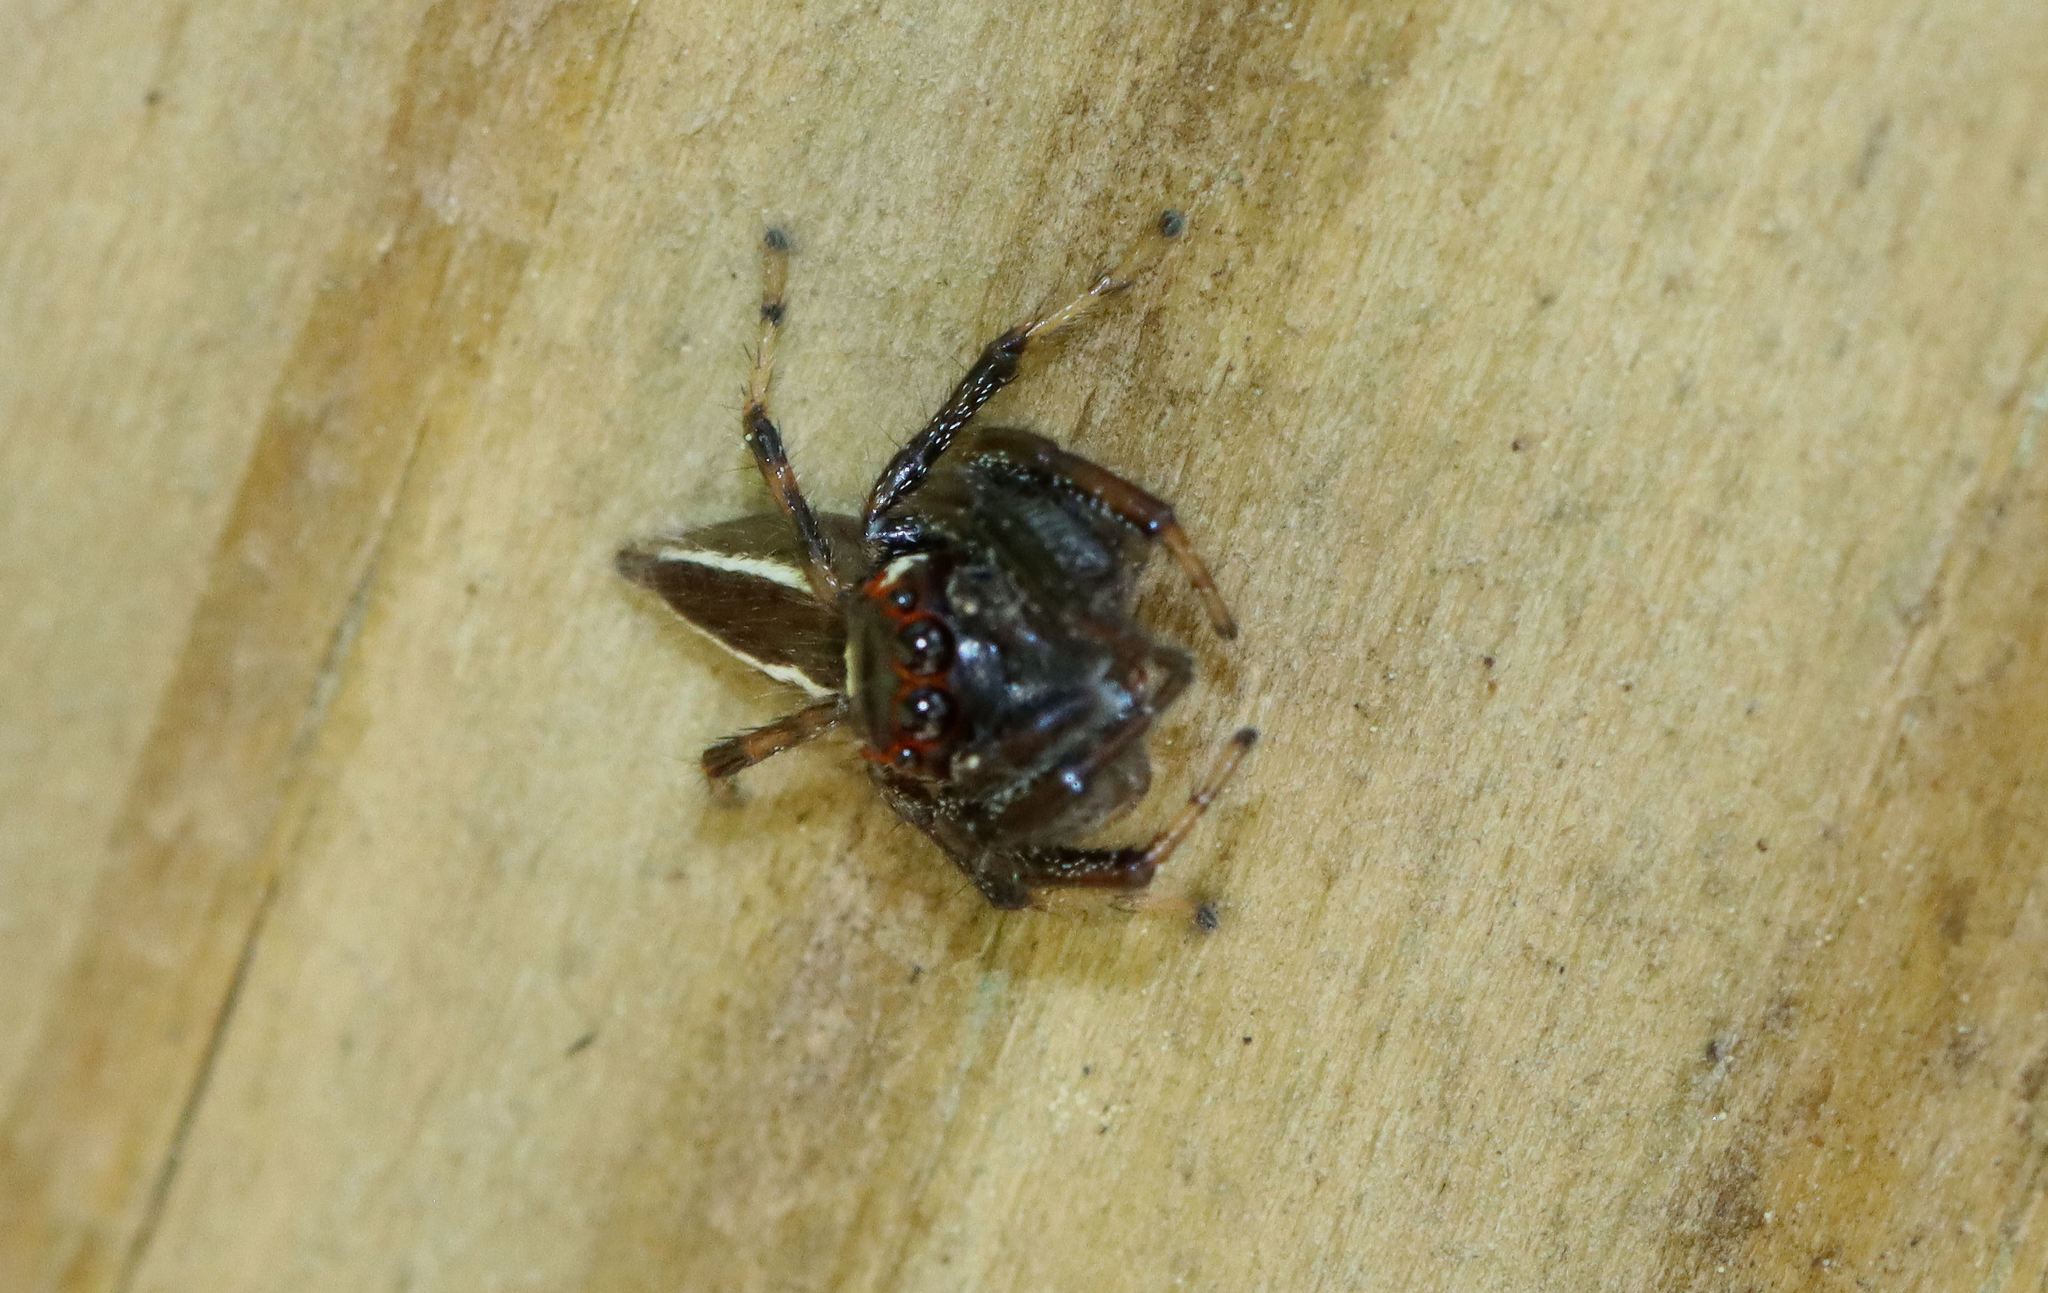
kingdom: Animalia
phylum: Arthropoda
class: Arachnida
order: Araneae
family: Salticidae
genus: Colonus
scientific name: Colonus sylvanus
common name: Jumping spiders
